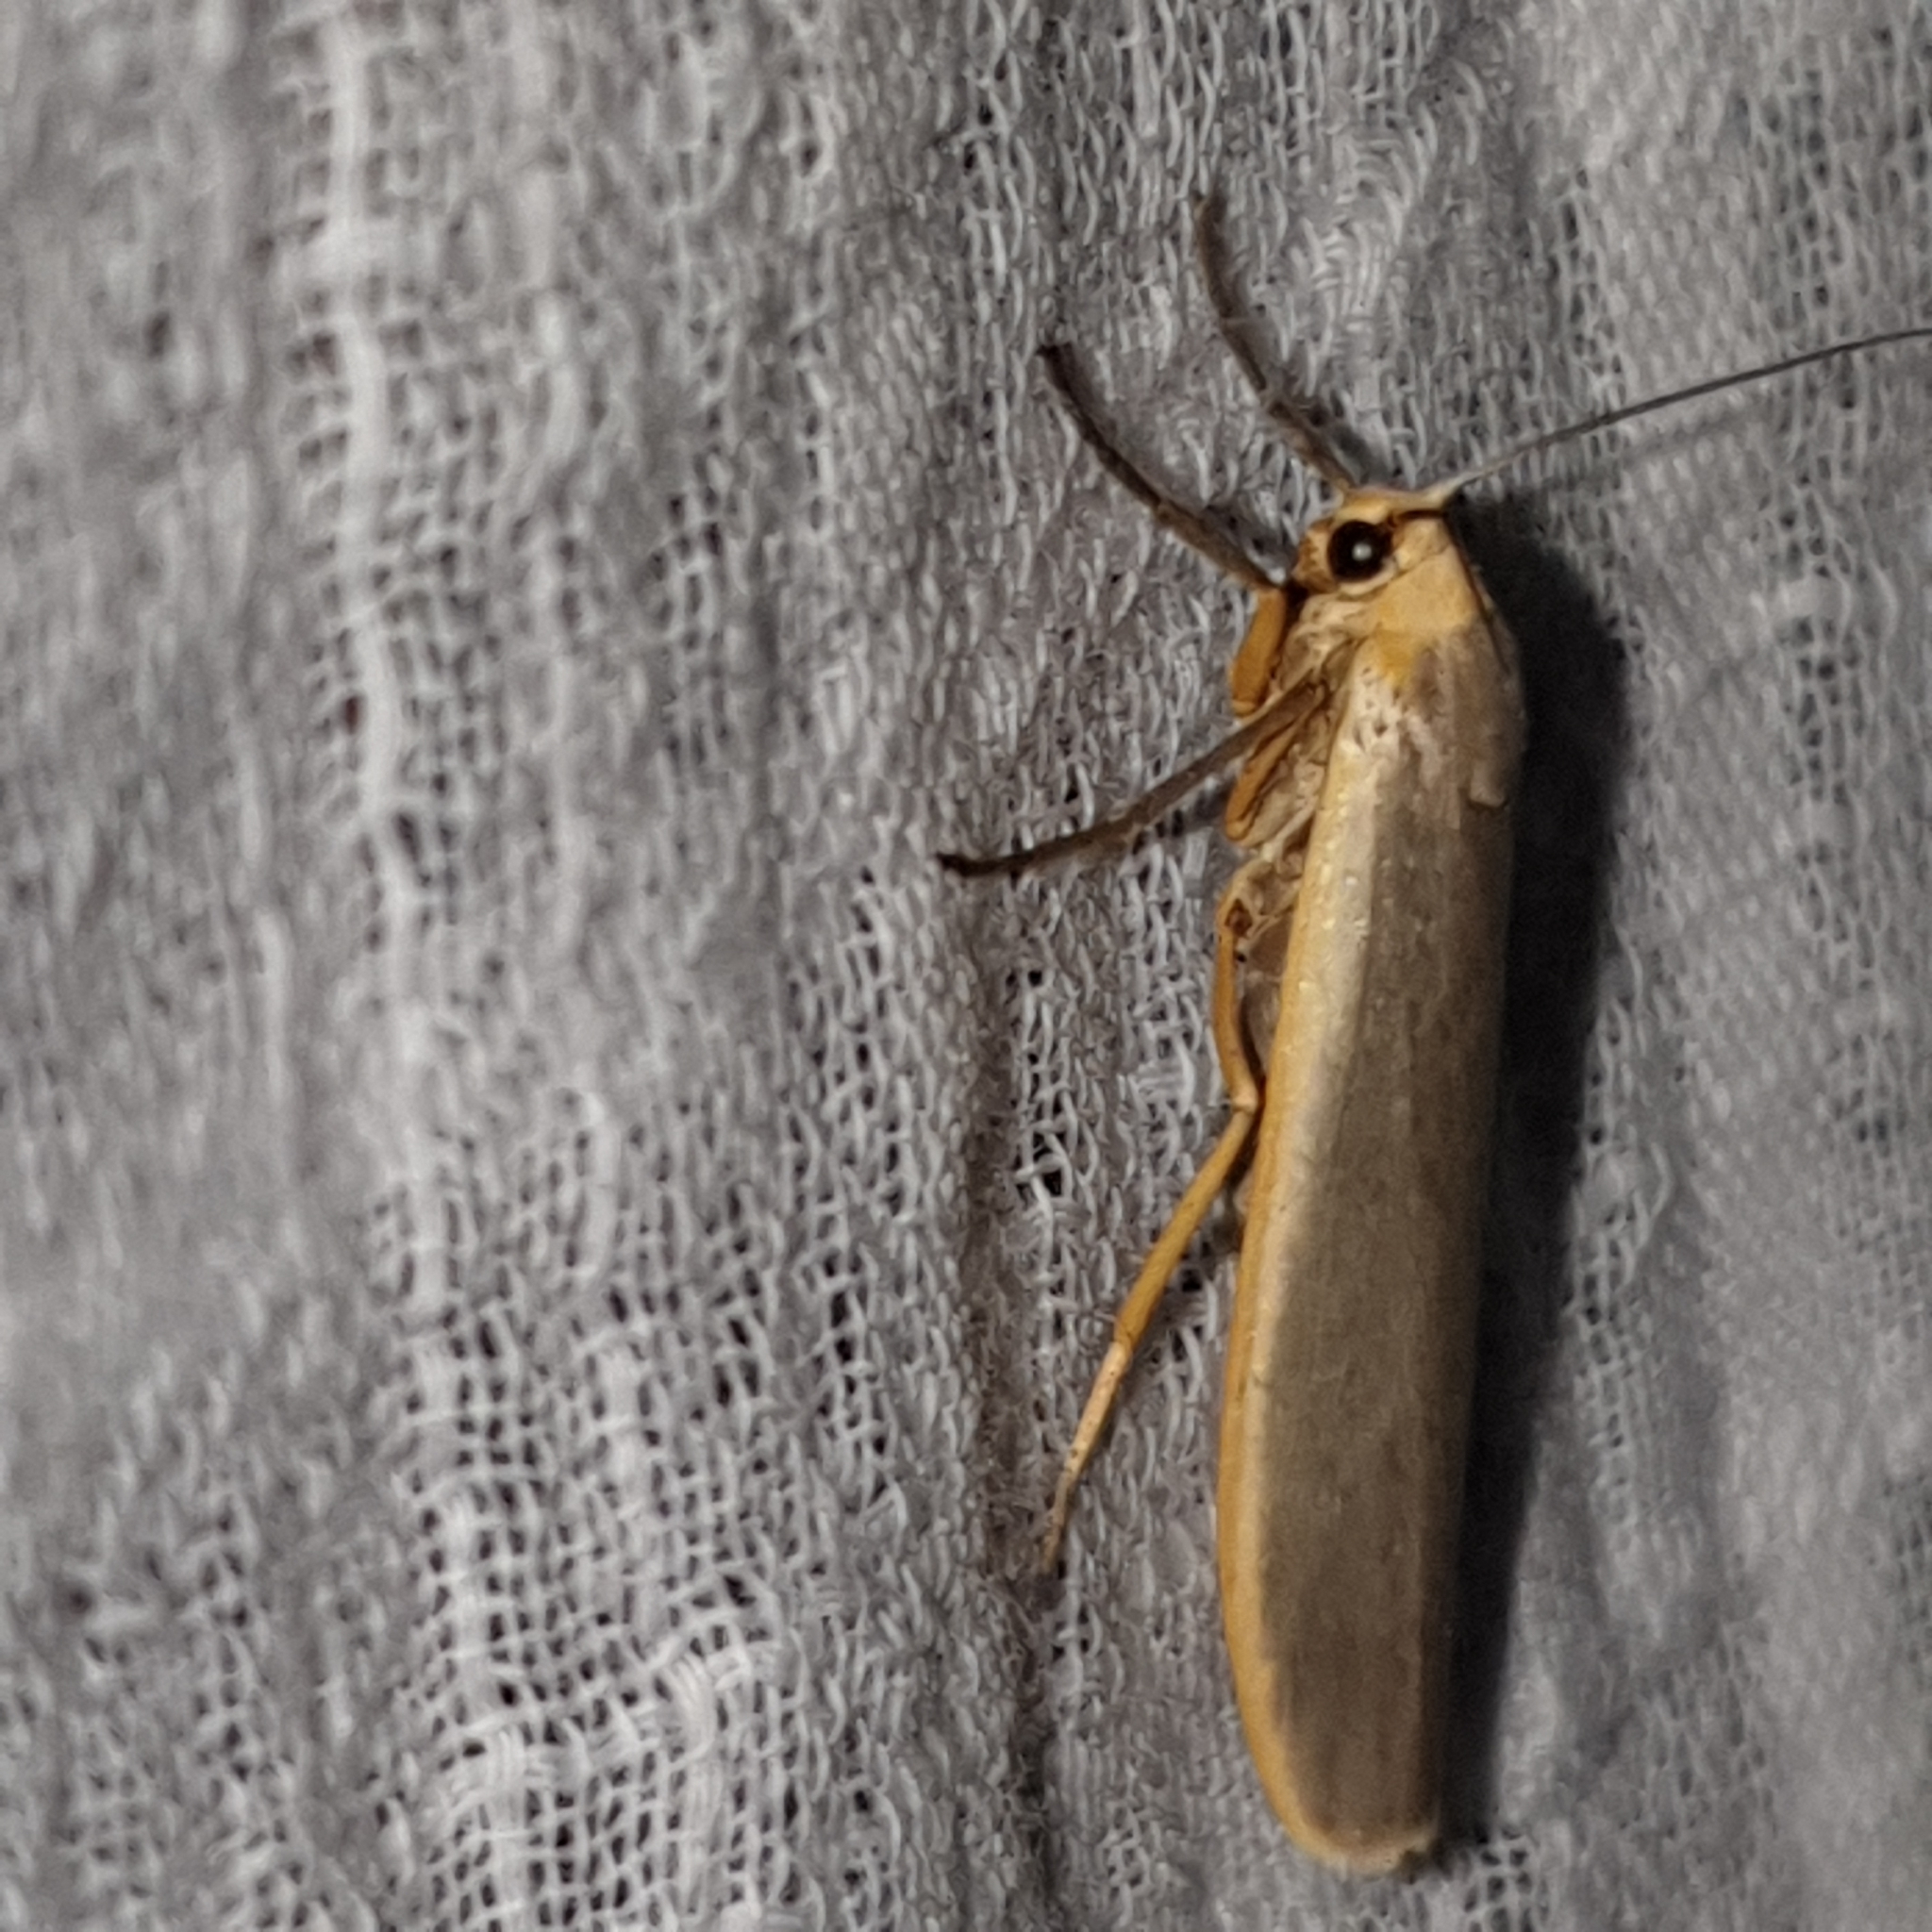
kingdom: Animalia
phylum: Arthropoda
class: Insecta
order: Lepidoptera
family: Erebidae
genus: Nyea
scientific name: Nyea lurideola
